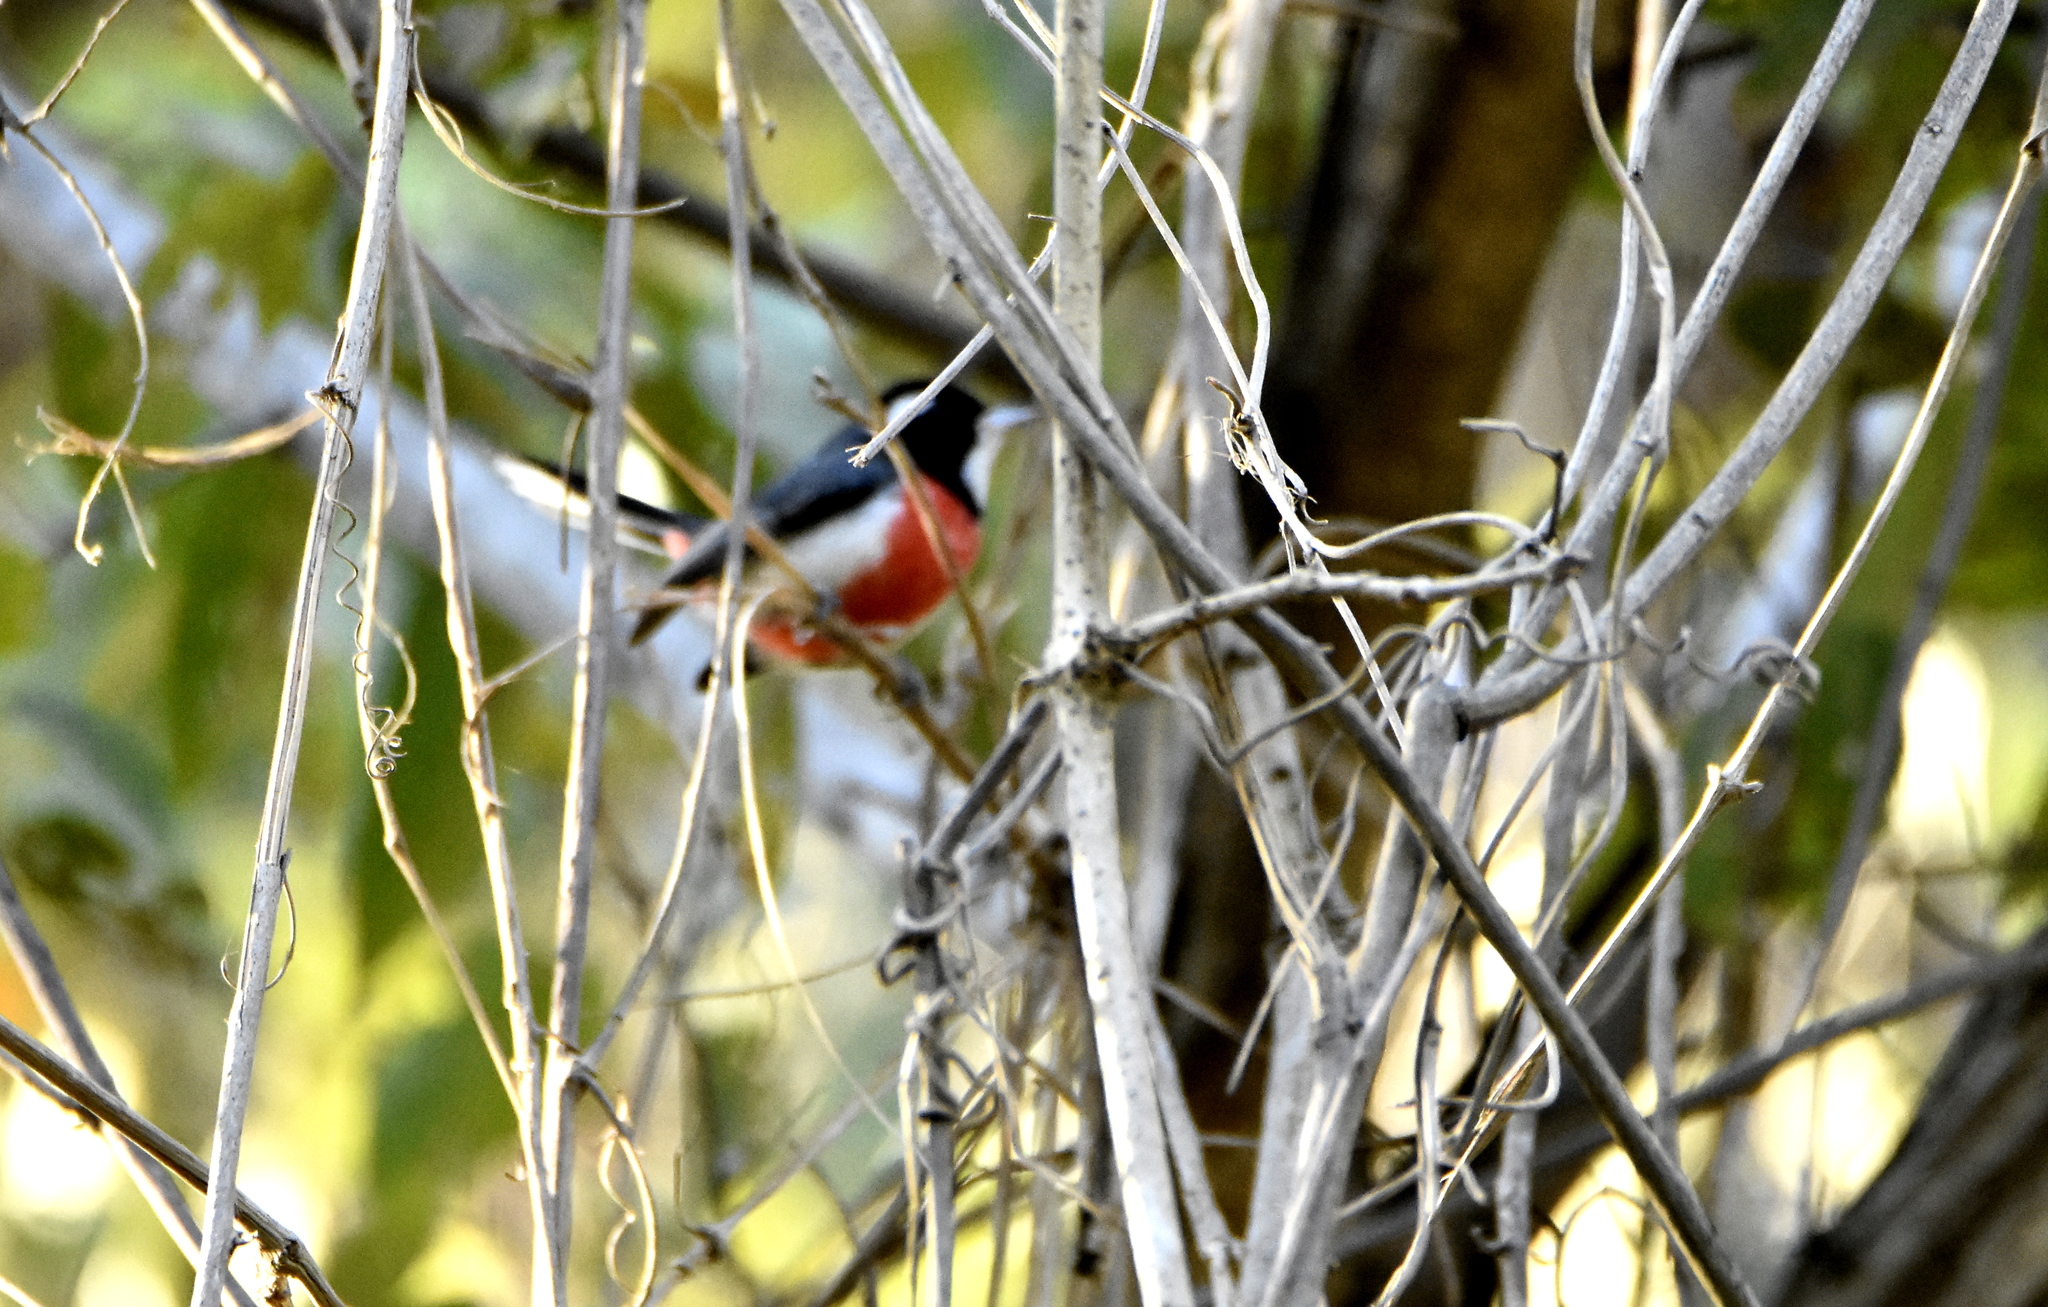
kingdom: Animalia
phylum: Chordata
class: Aves
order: Passeriformes
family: Cardinalidae
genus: Granatellus
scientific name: Granatellus venustus
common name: Red-breasted chat
